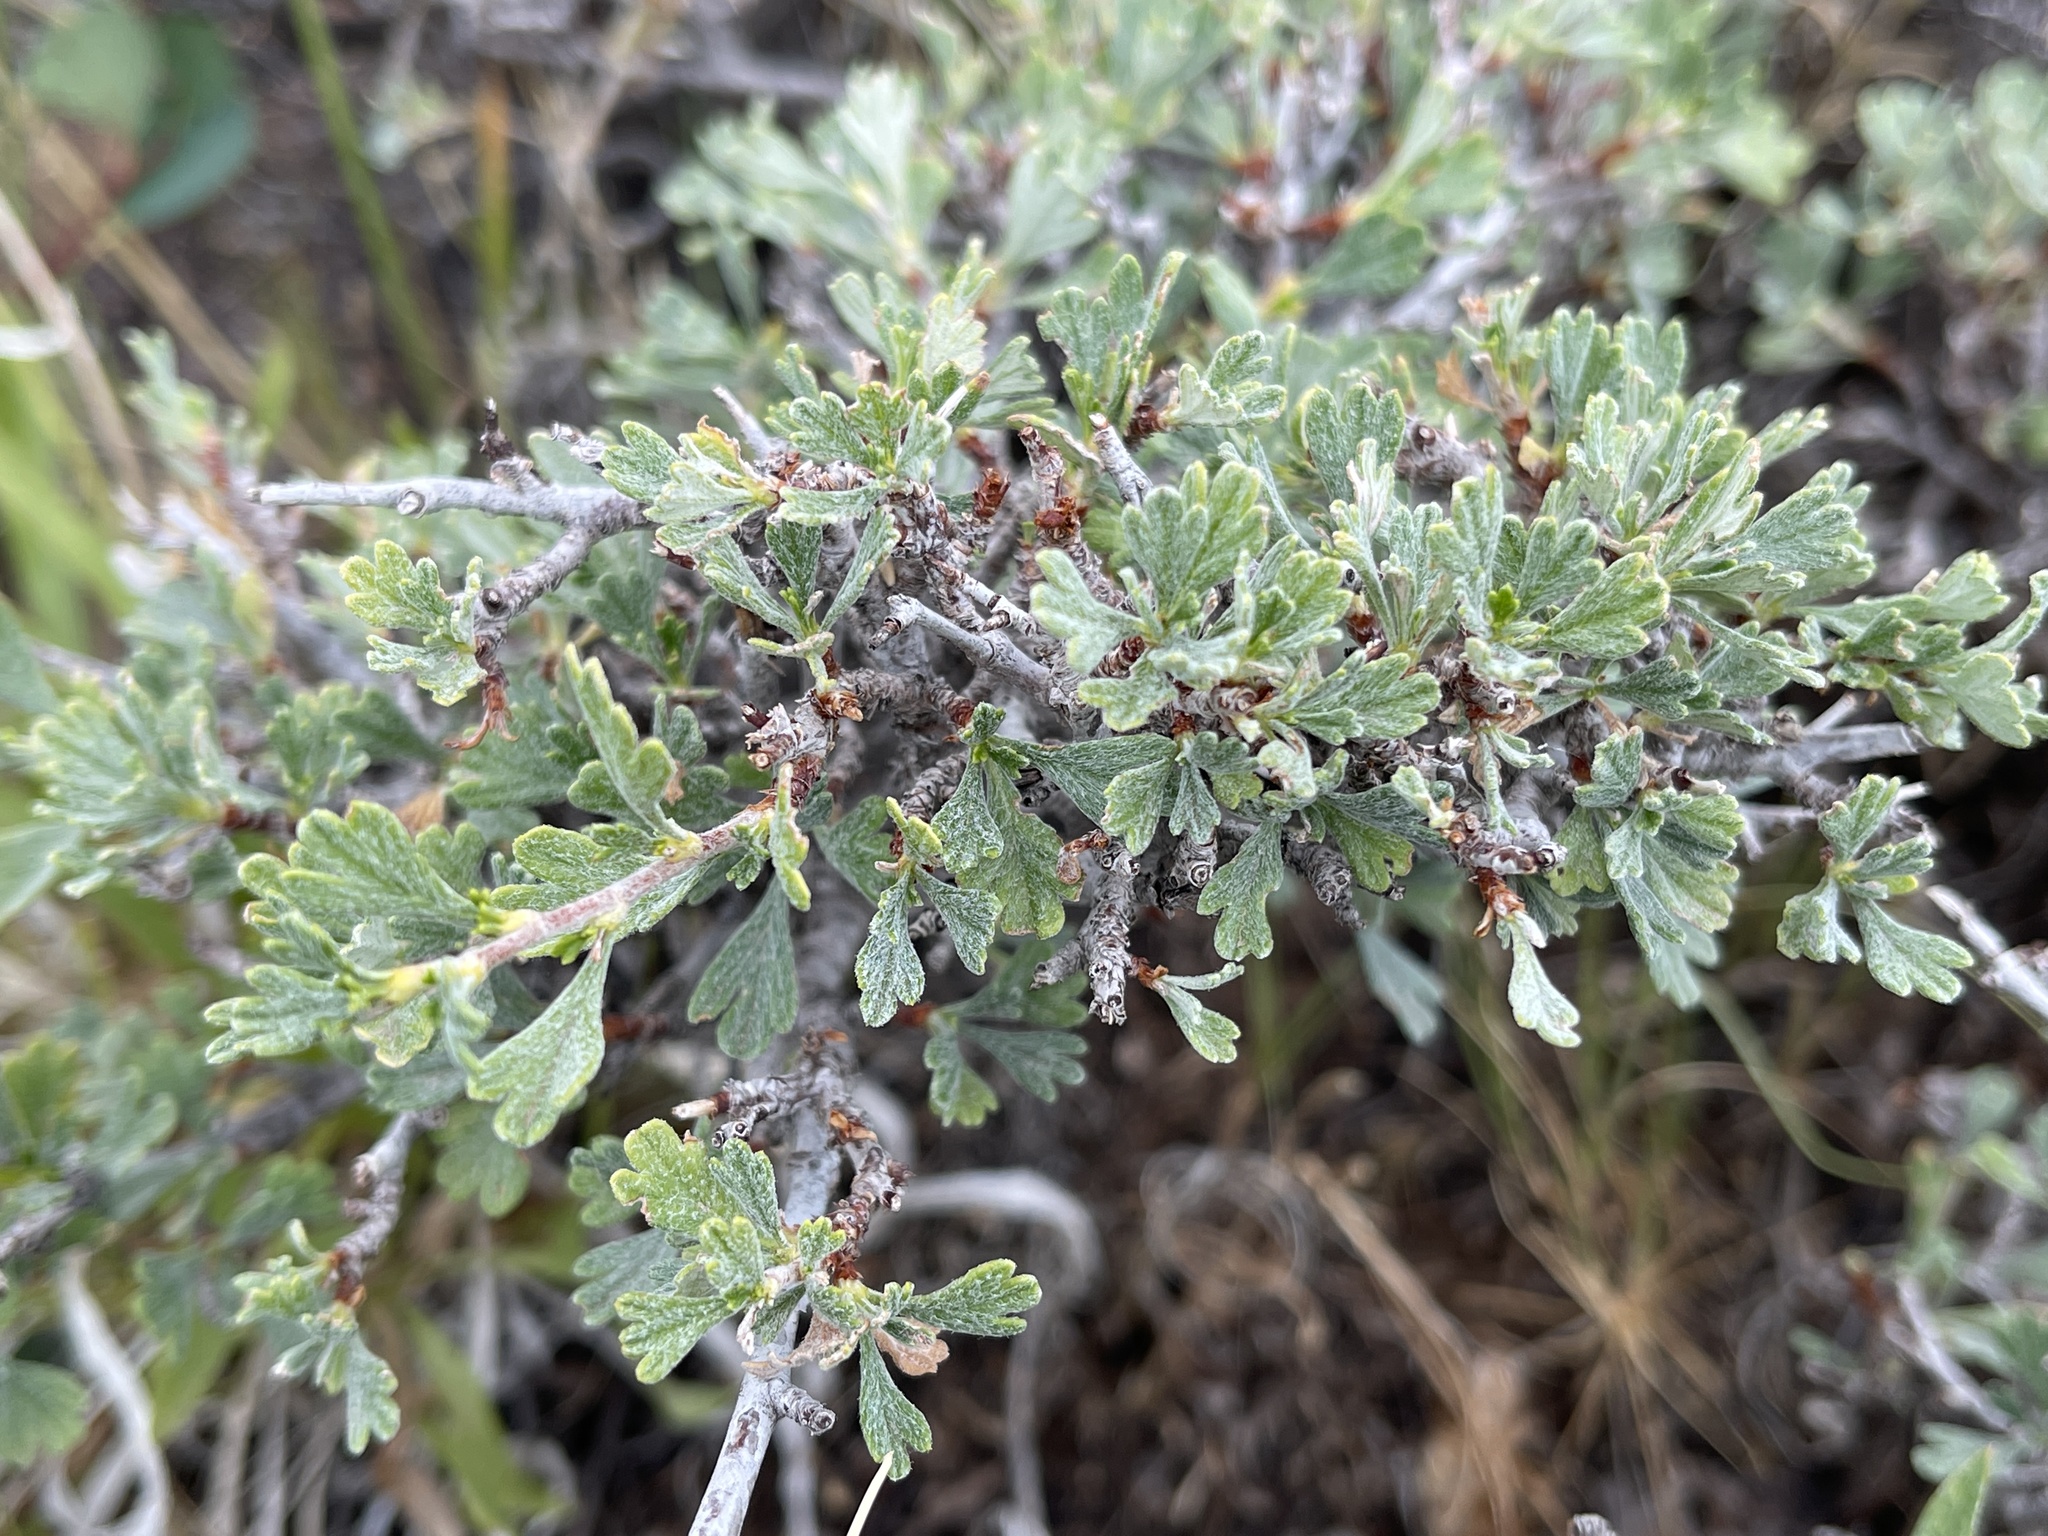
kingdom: Plantae
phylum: Tracheophyta
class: Magnoliopsida
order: Rosales
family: Rosaceae
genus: Purshia
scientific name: Purshia tridentata
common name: Antelope bitterbrush
